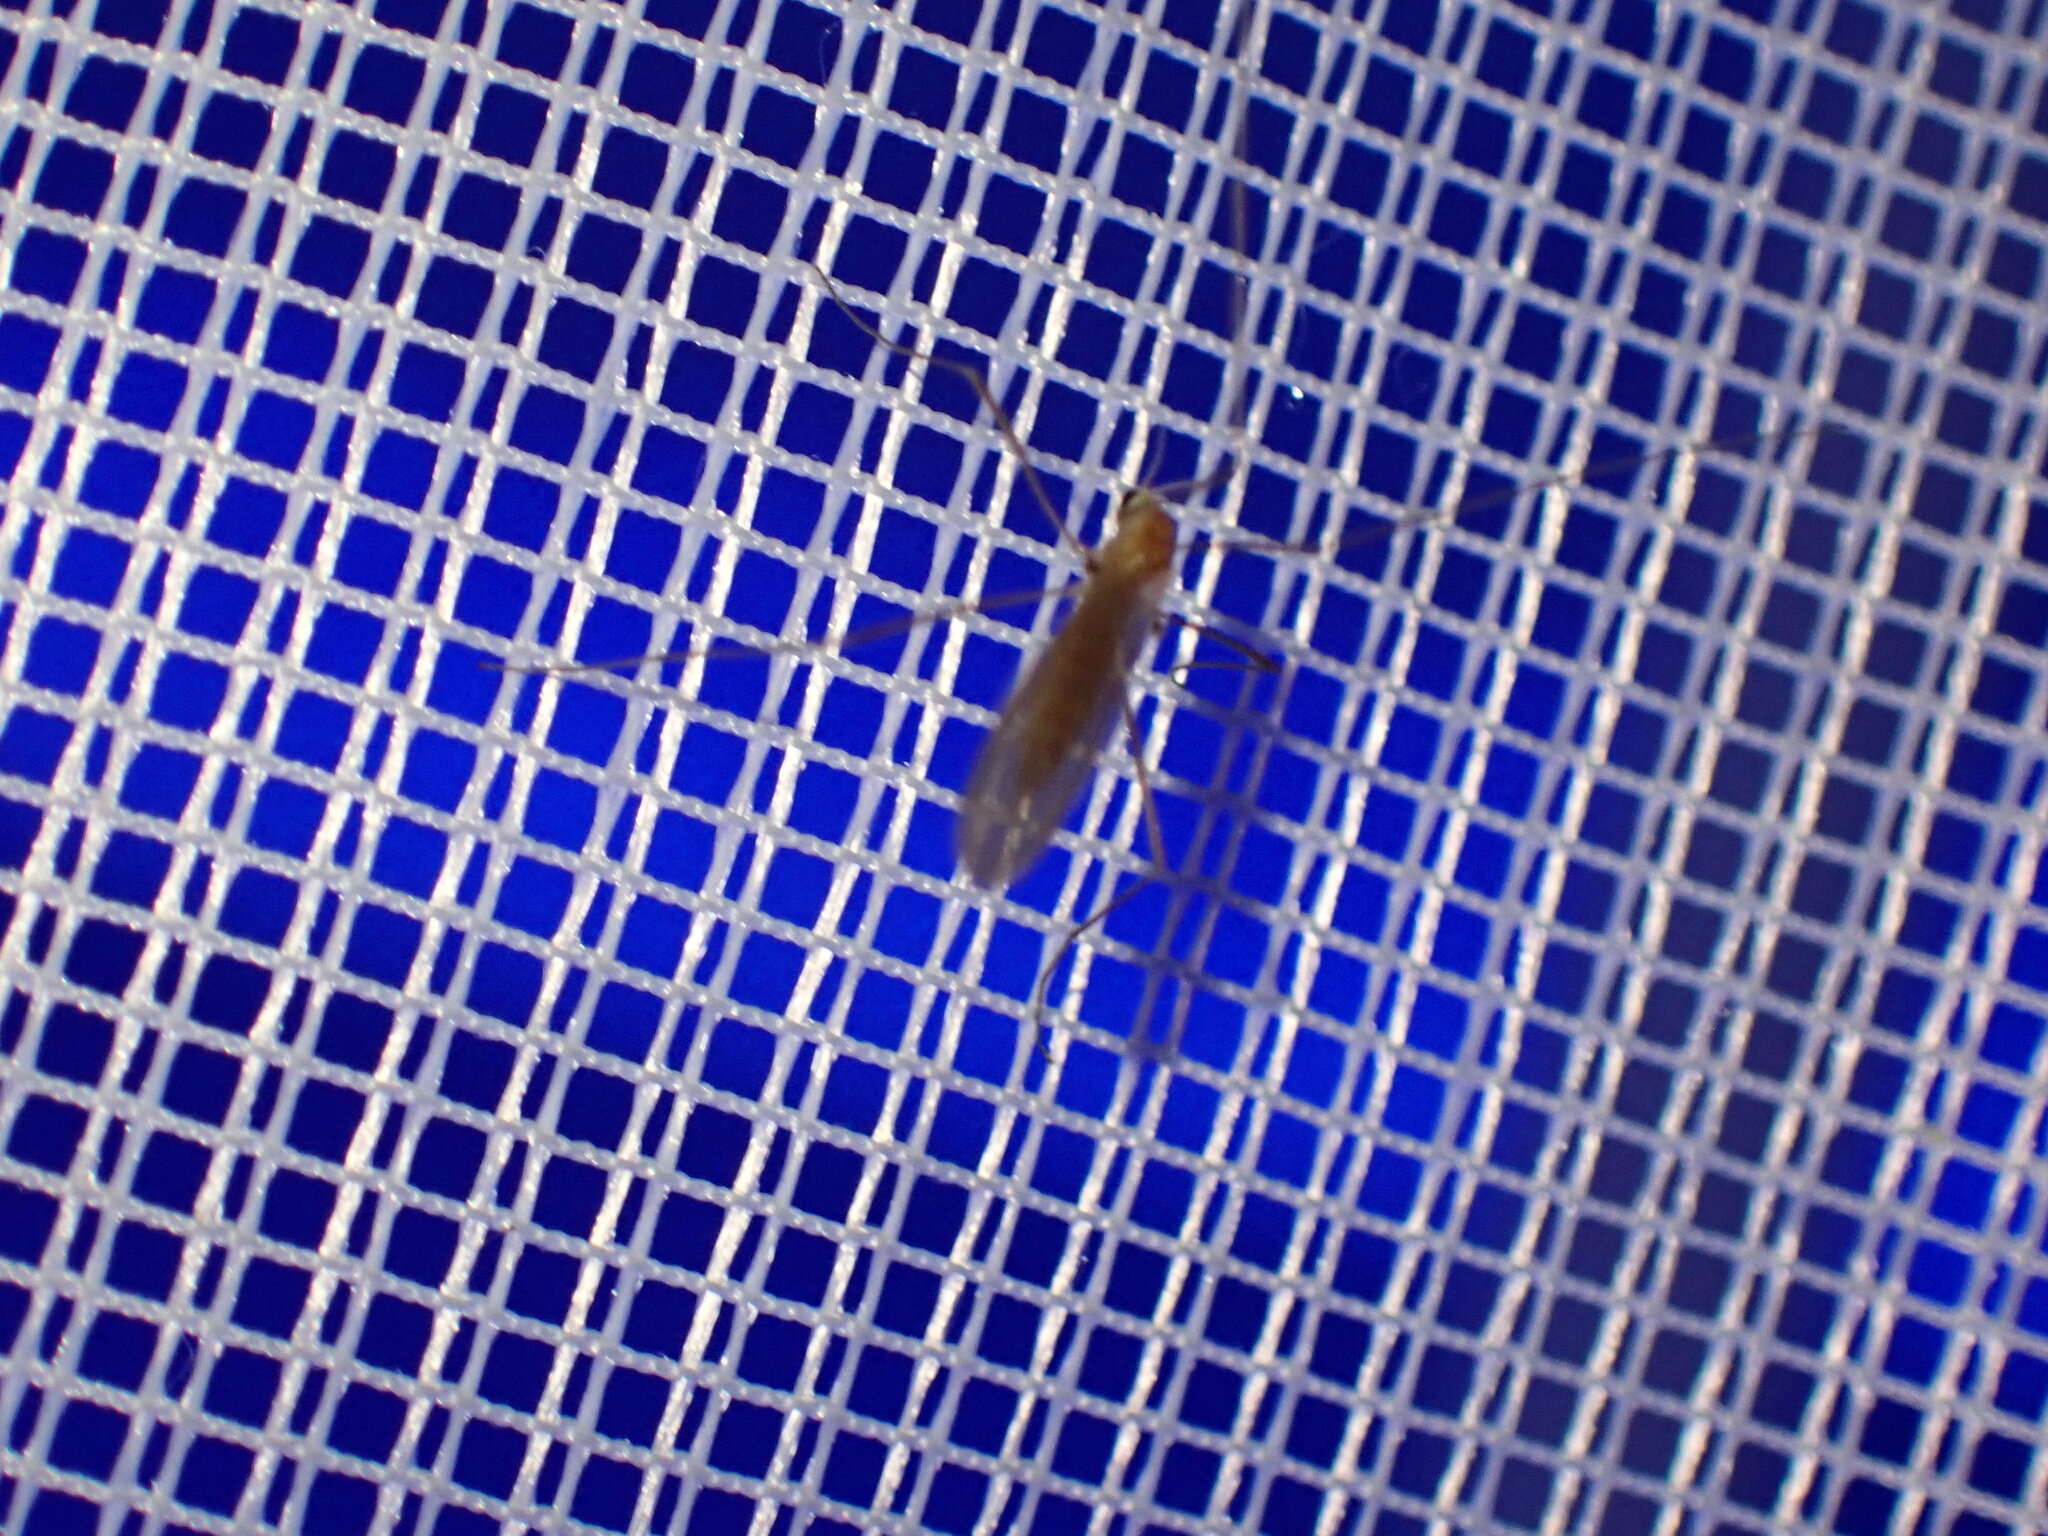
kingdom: Animalia
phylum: Arthropoda
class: Insecta
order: Diptera
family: Limoniidae
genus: Erioptera
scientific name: Erioptera septemtrionis
